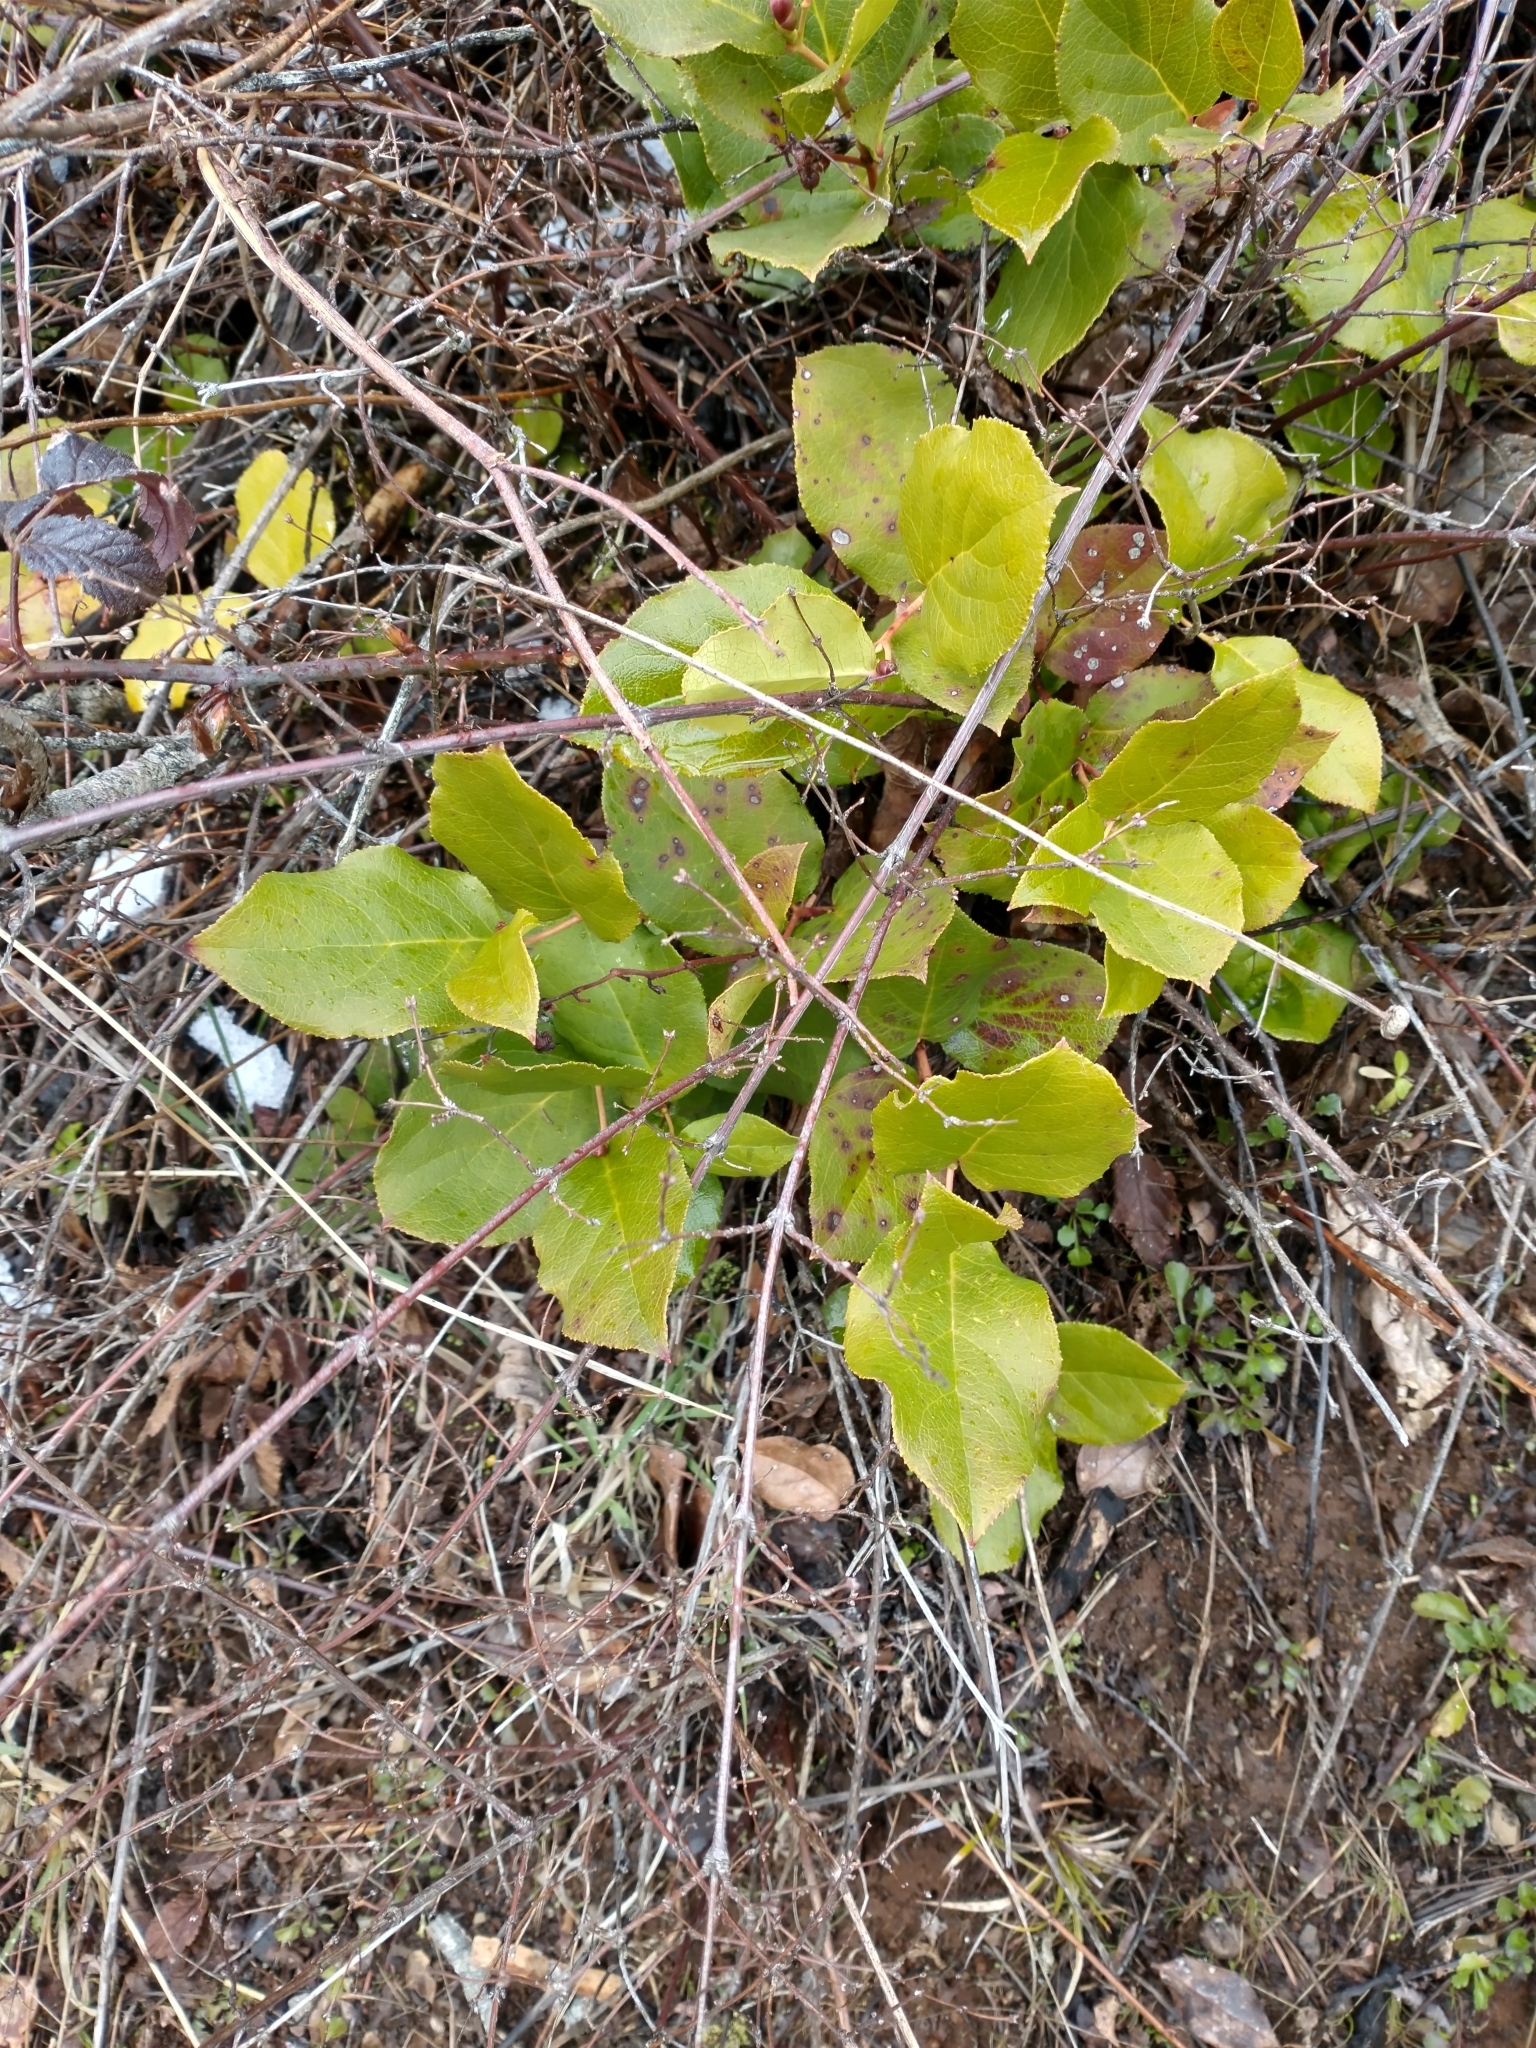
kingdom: Plantae
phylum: Tracheophyta
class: Magnoliopsida
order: Ericales
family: Ericaceae
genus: Gaultheria
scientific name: Gaultheria shallon
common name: Shallon
